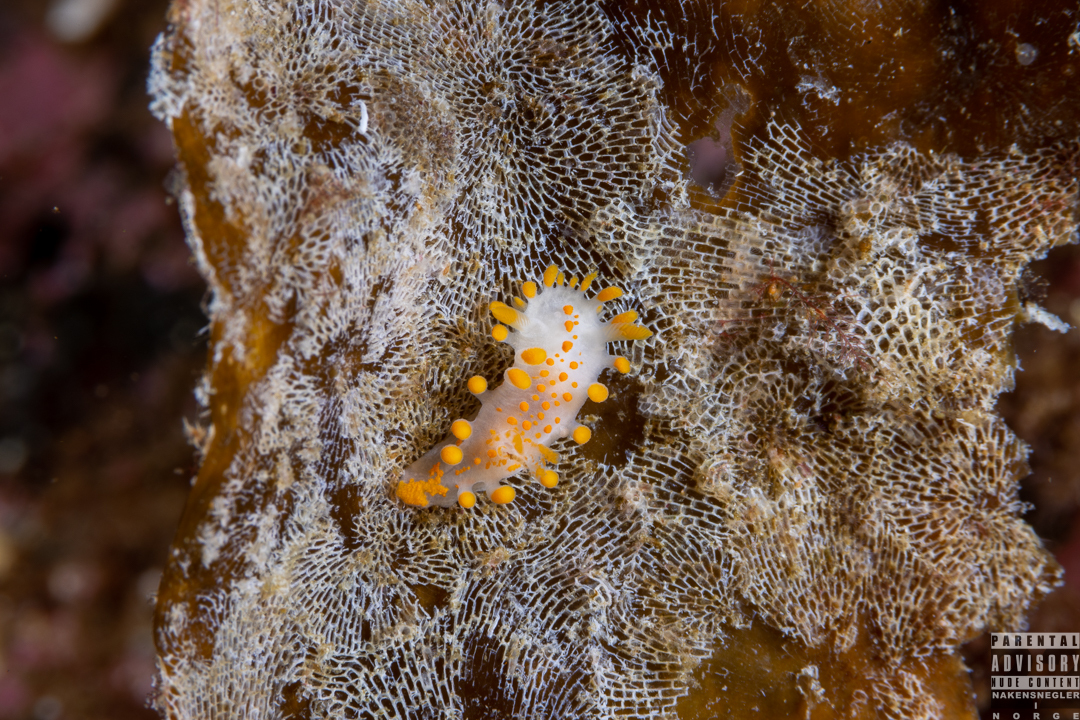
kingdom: Animalia
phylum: Mollusca
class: Gastropoda
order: Nudibranchia
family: Polyceridae
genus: Limacia
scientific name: Limacia clavigera
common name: Orange-clubbed sea slug
